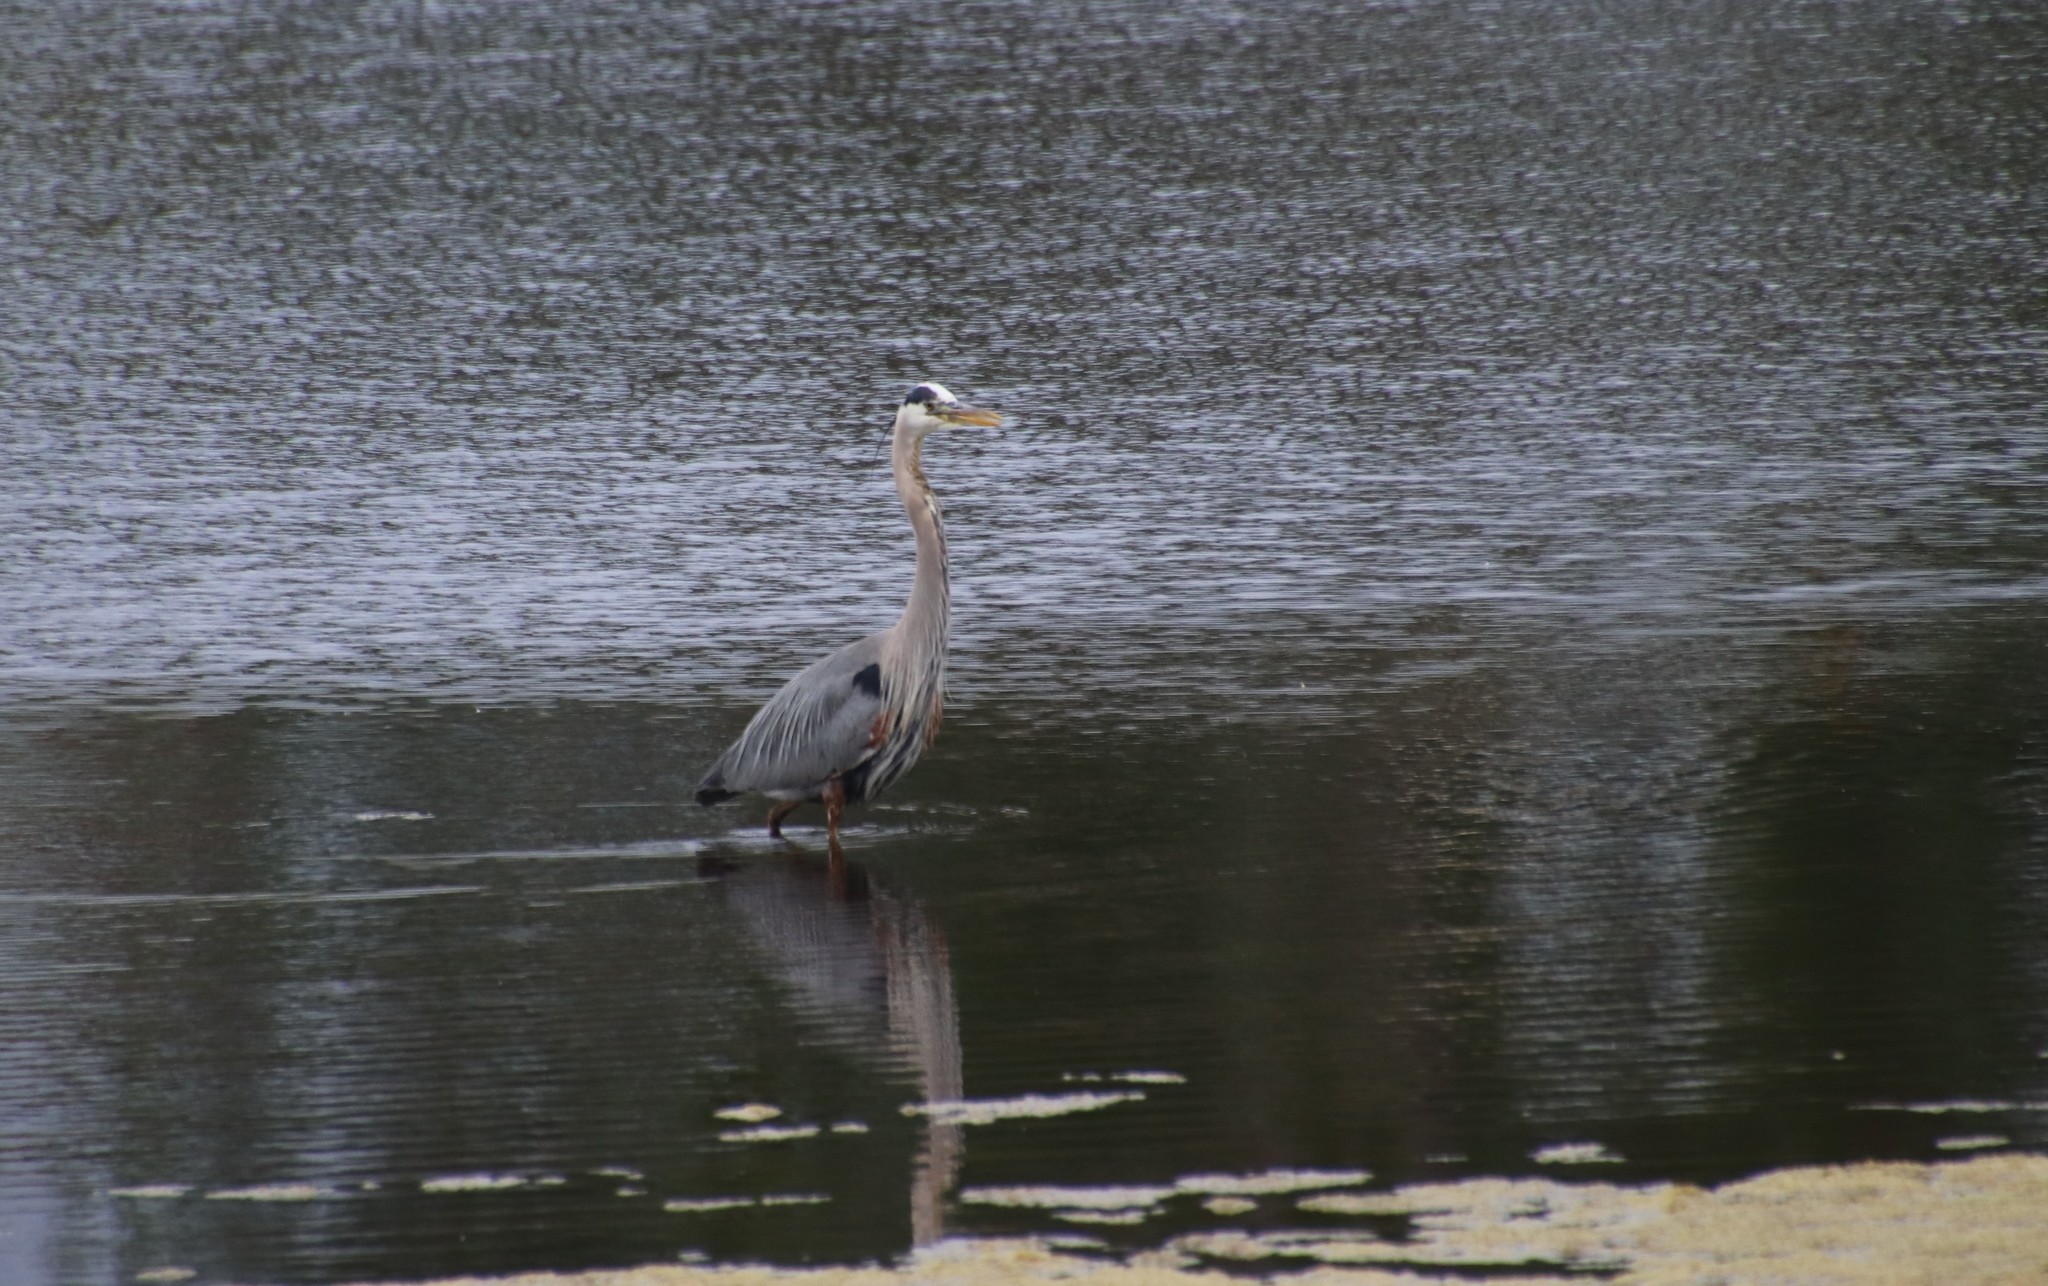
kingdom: Animalia
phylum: Chordata
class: Aves
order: Pelecaniformes
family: Ardeidae
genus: Ardea
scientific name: Ardea herodias
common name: Great blue heron
